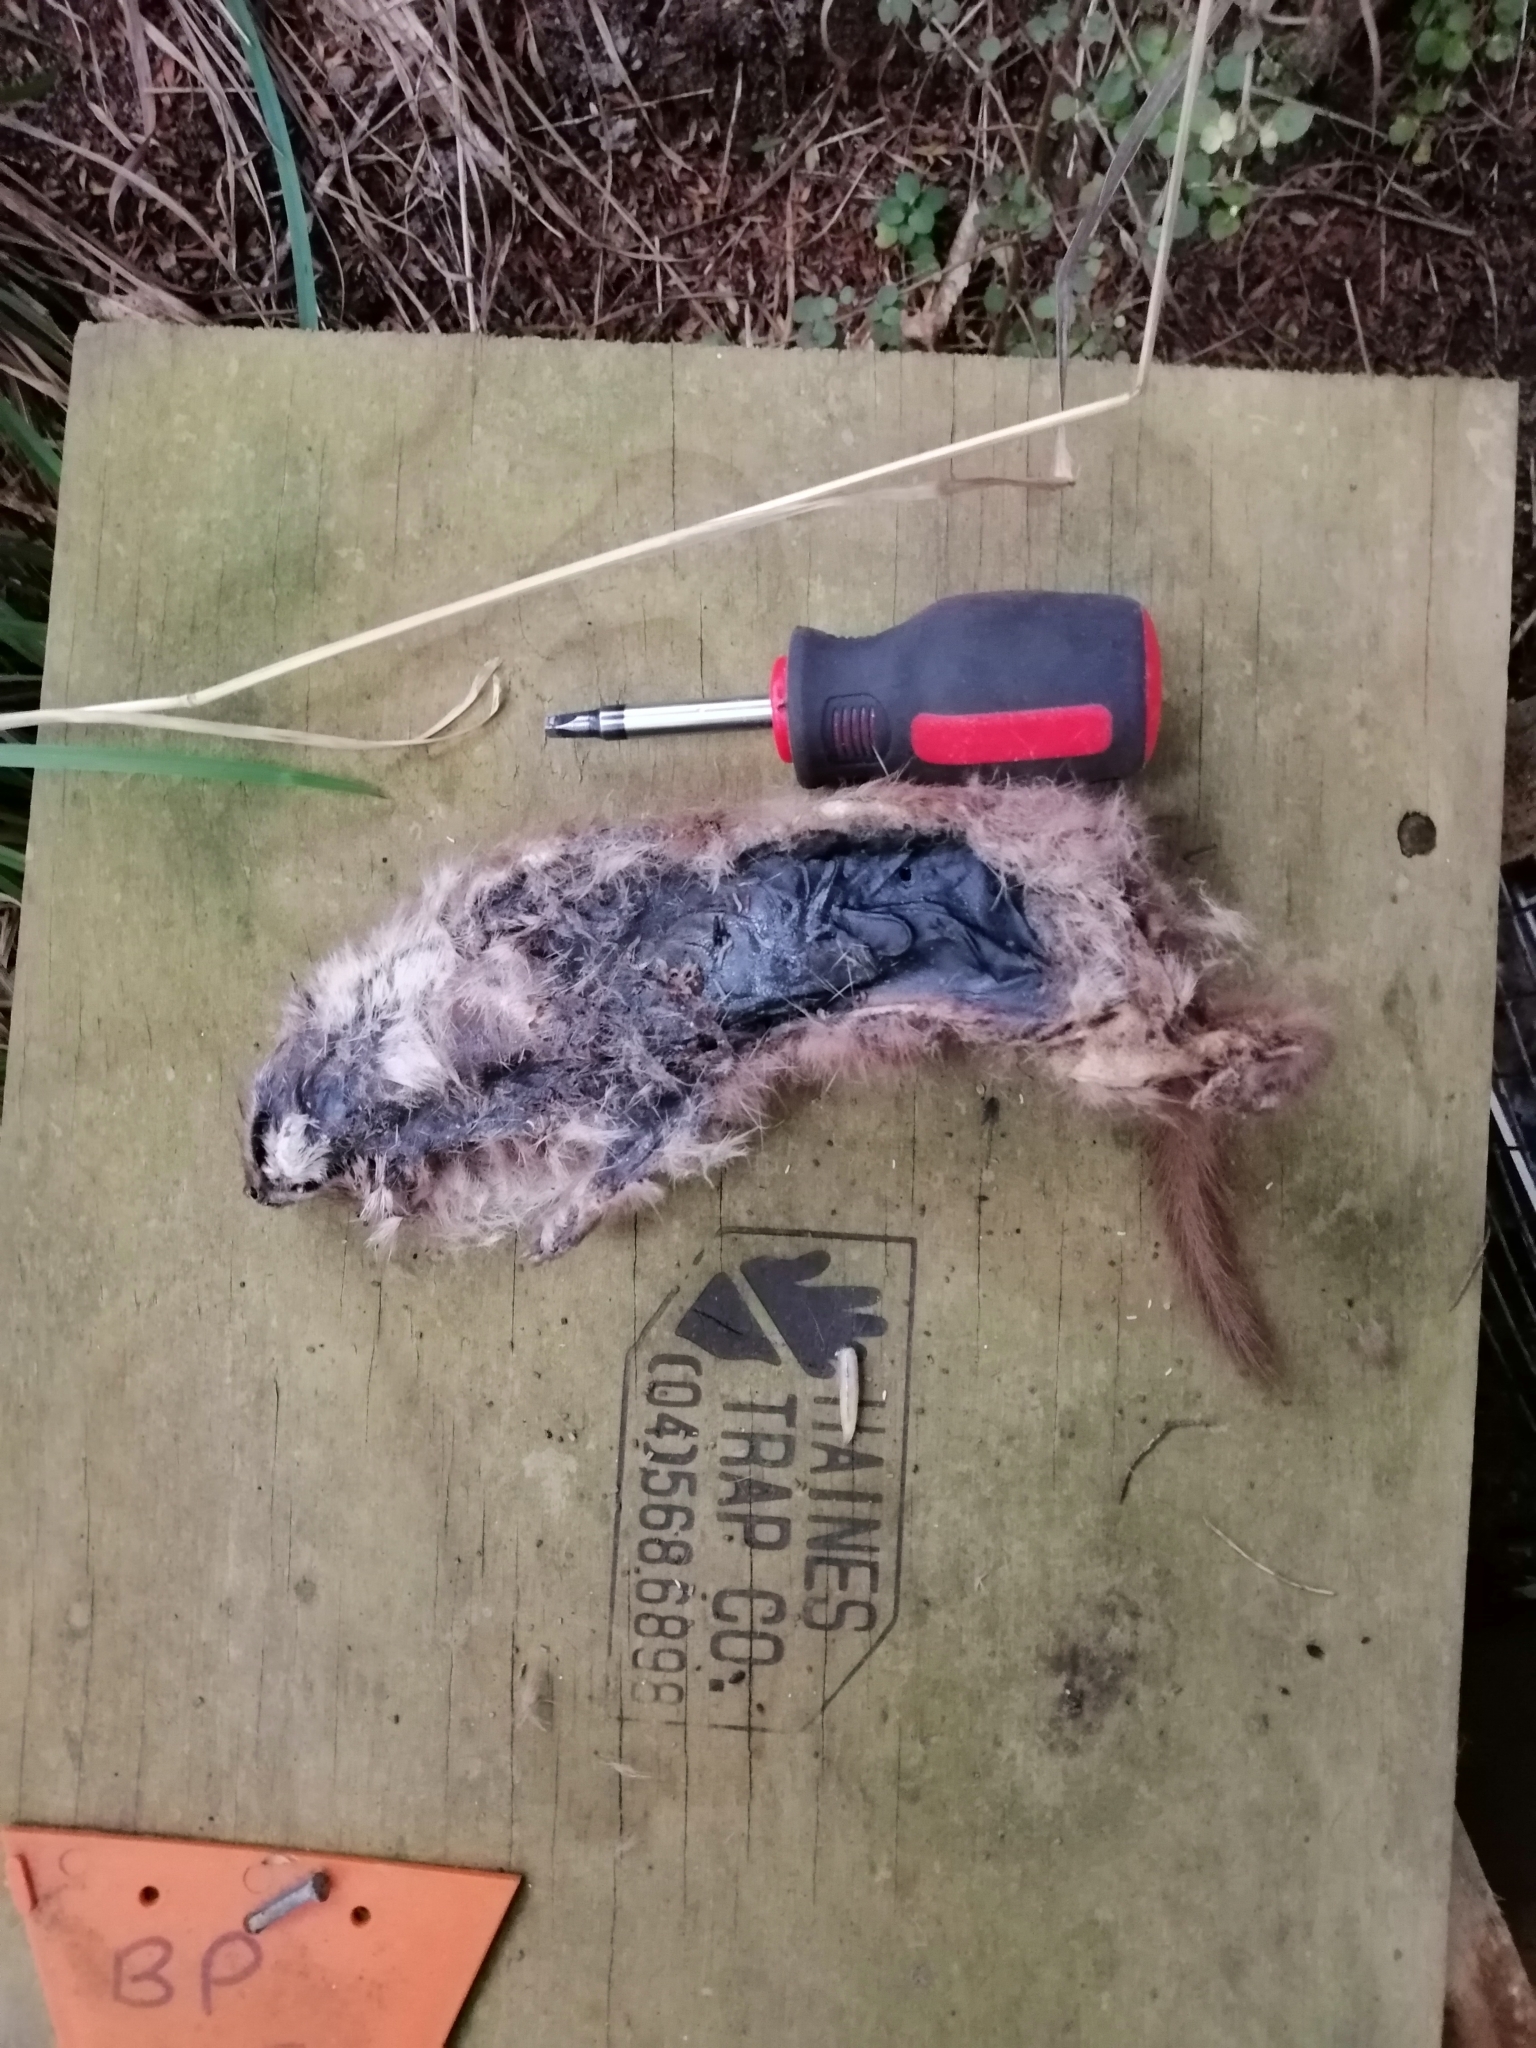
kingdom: Animalia
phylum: Chordata
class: Mammalia
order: Carnivora
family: Mustelidae
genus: Mustela
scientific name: Mustela nivalis
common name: Least weasel
